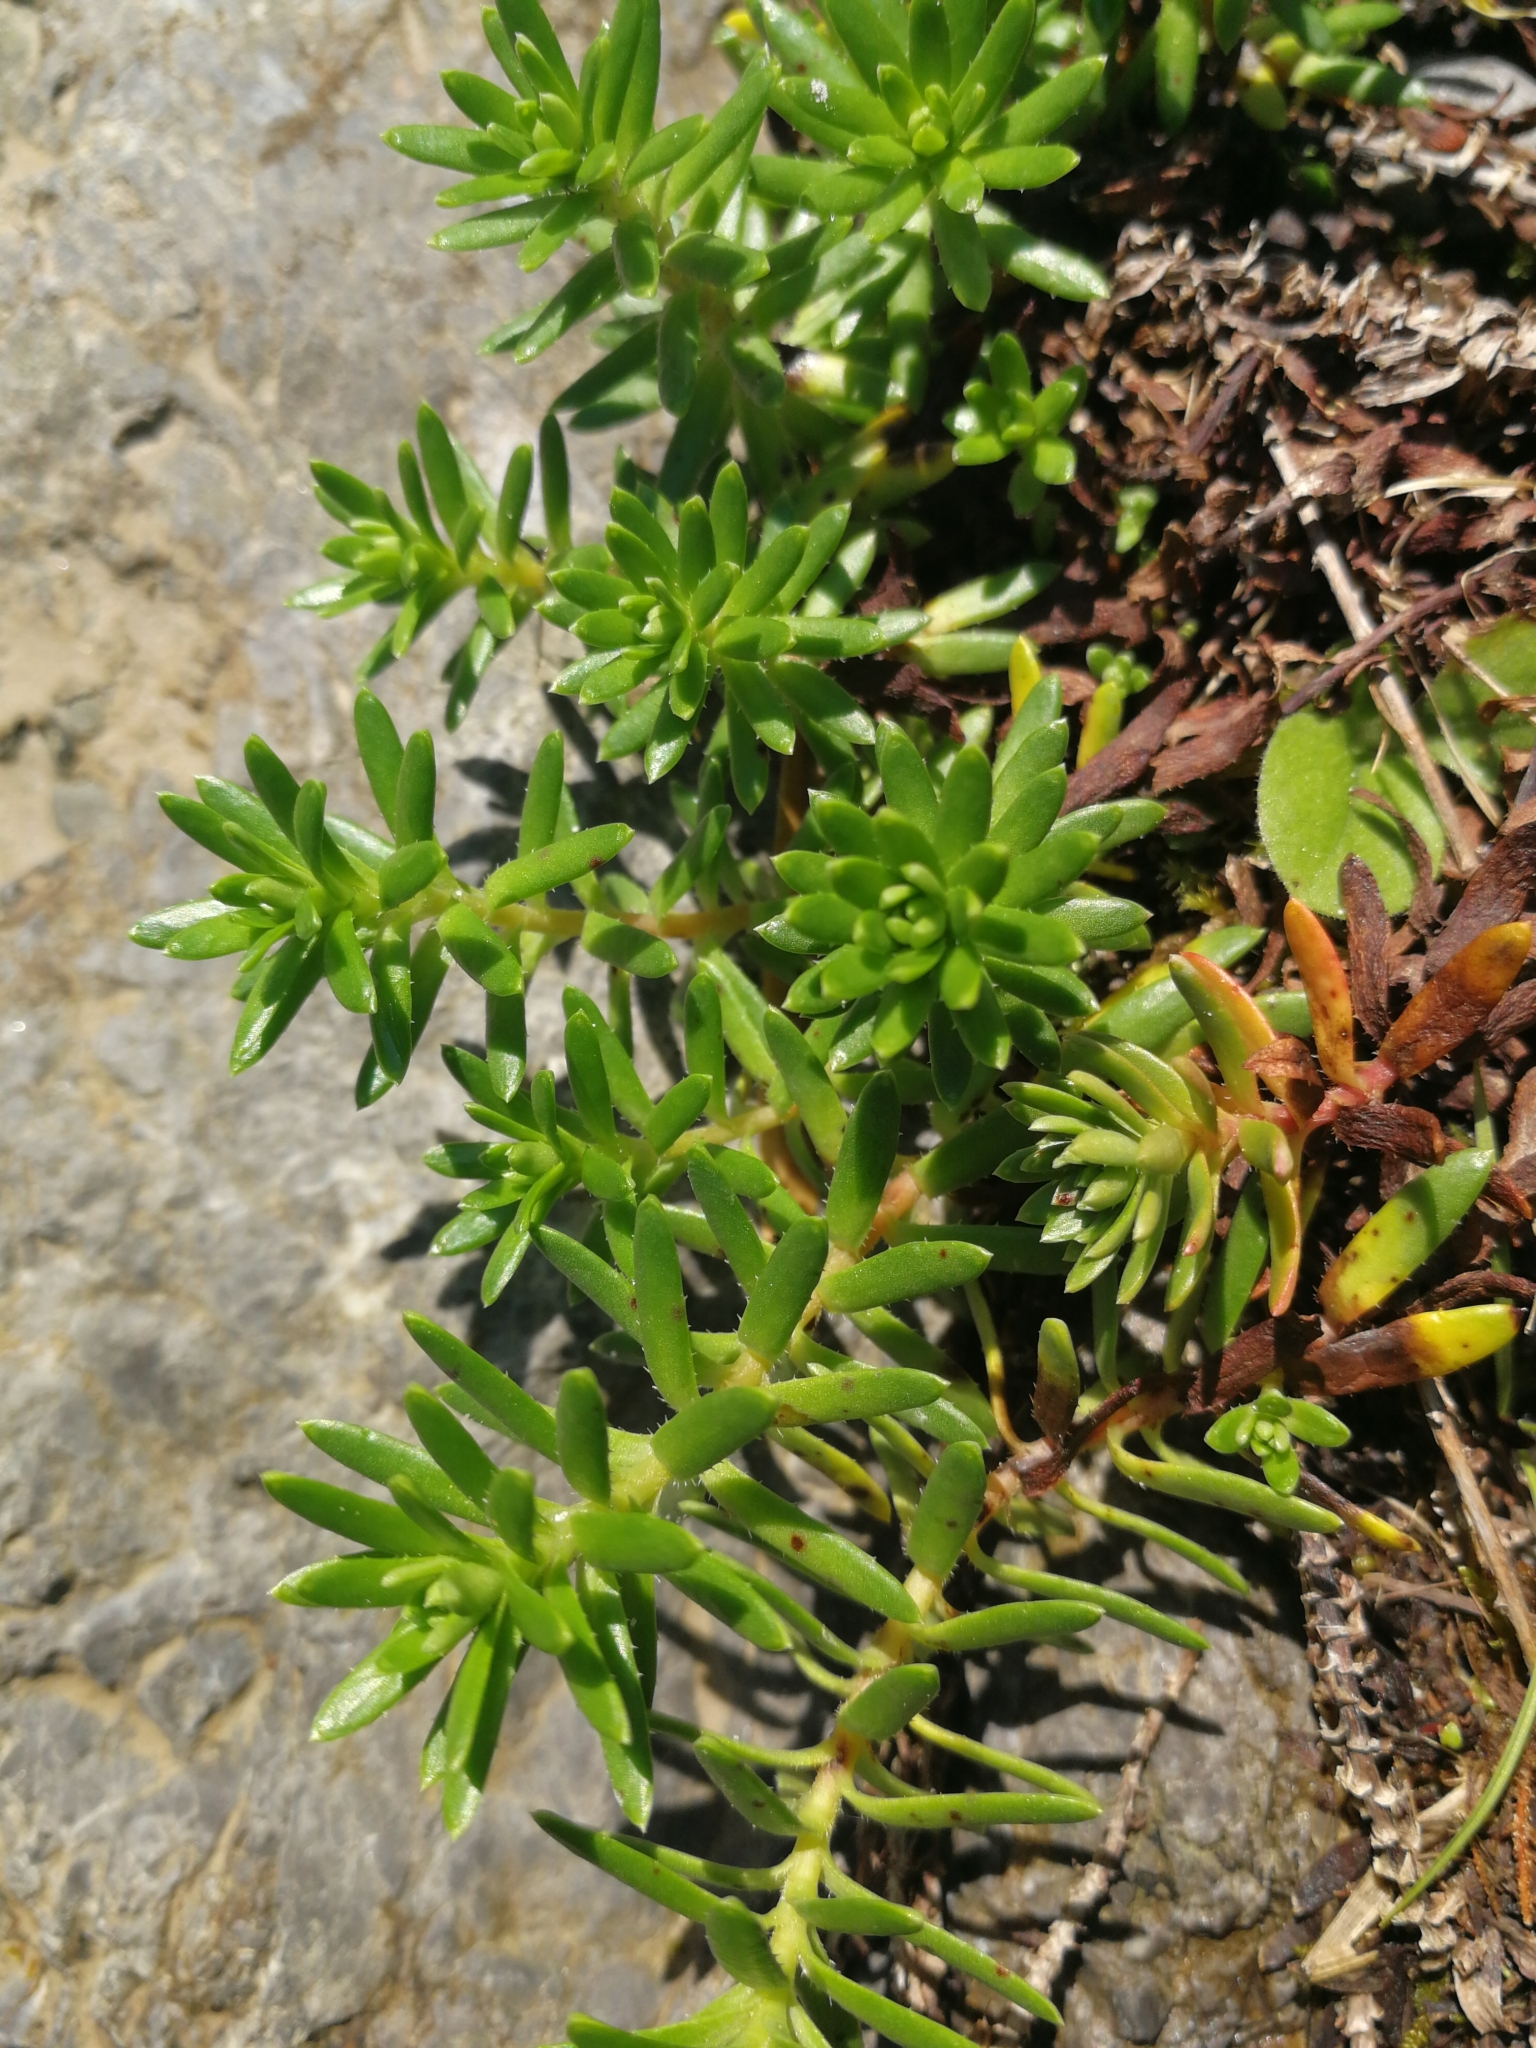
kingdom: Plantae
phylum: Tracheophyta
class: Magnoliopsida
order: Saxifragales
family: Saxifragaceae
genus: Saxifraga
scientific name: Saxifraga aizoides
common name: Yellow mountain saxifrage
